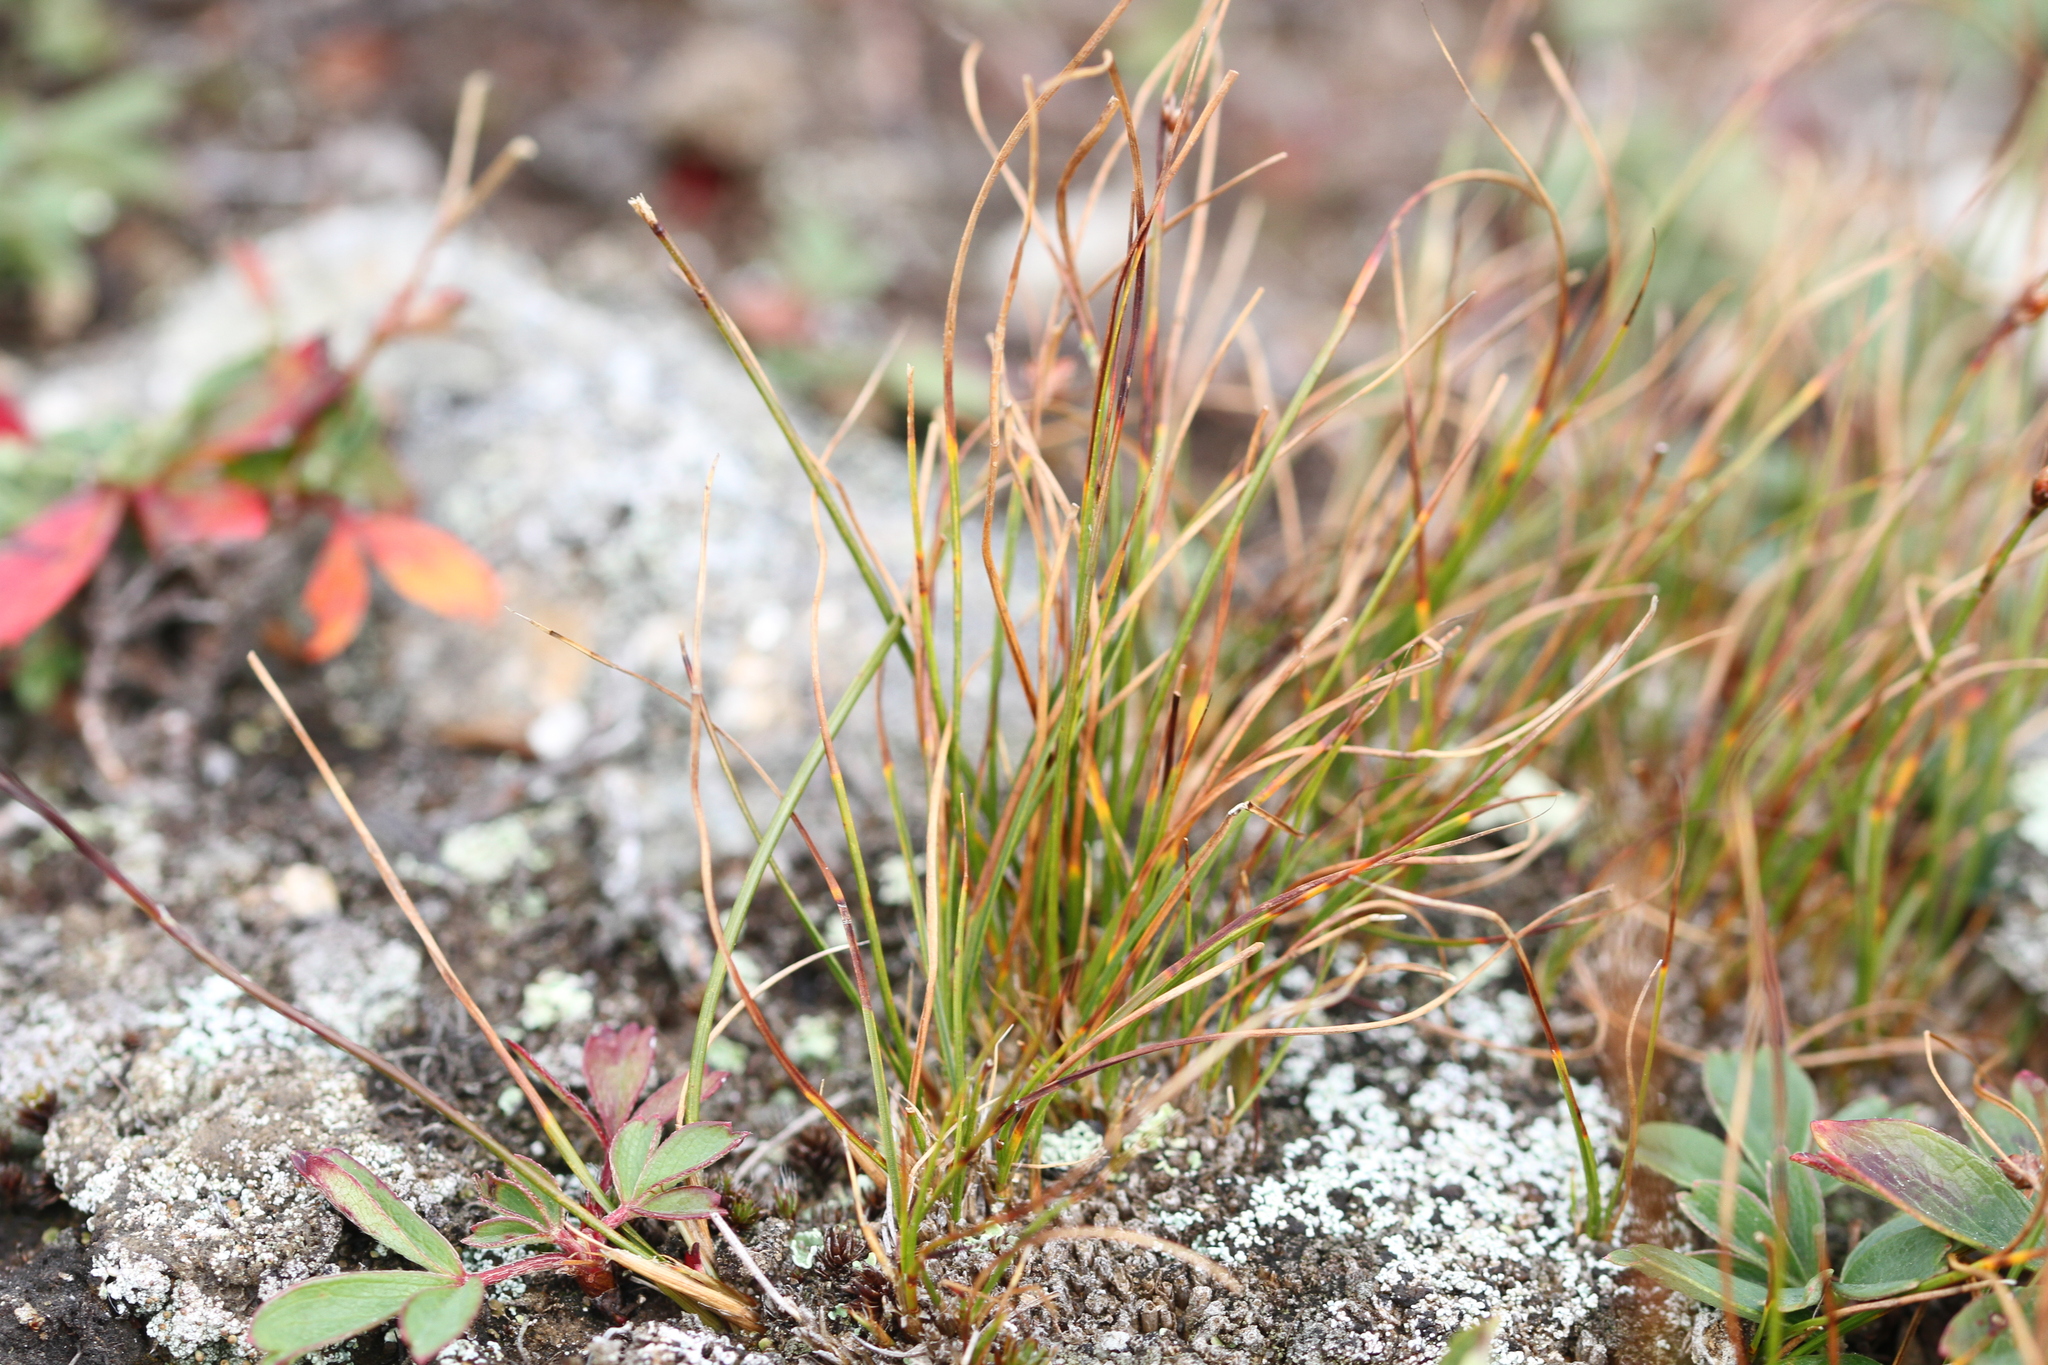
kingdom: Plantae
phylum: Tracheophyta
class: Liliopsida
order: Poales
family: Juncaceae
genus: Oreojuncus
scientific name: Oreojuncus trifidus
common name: Highland rush
